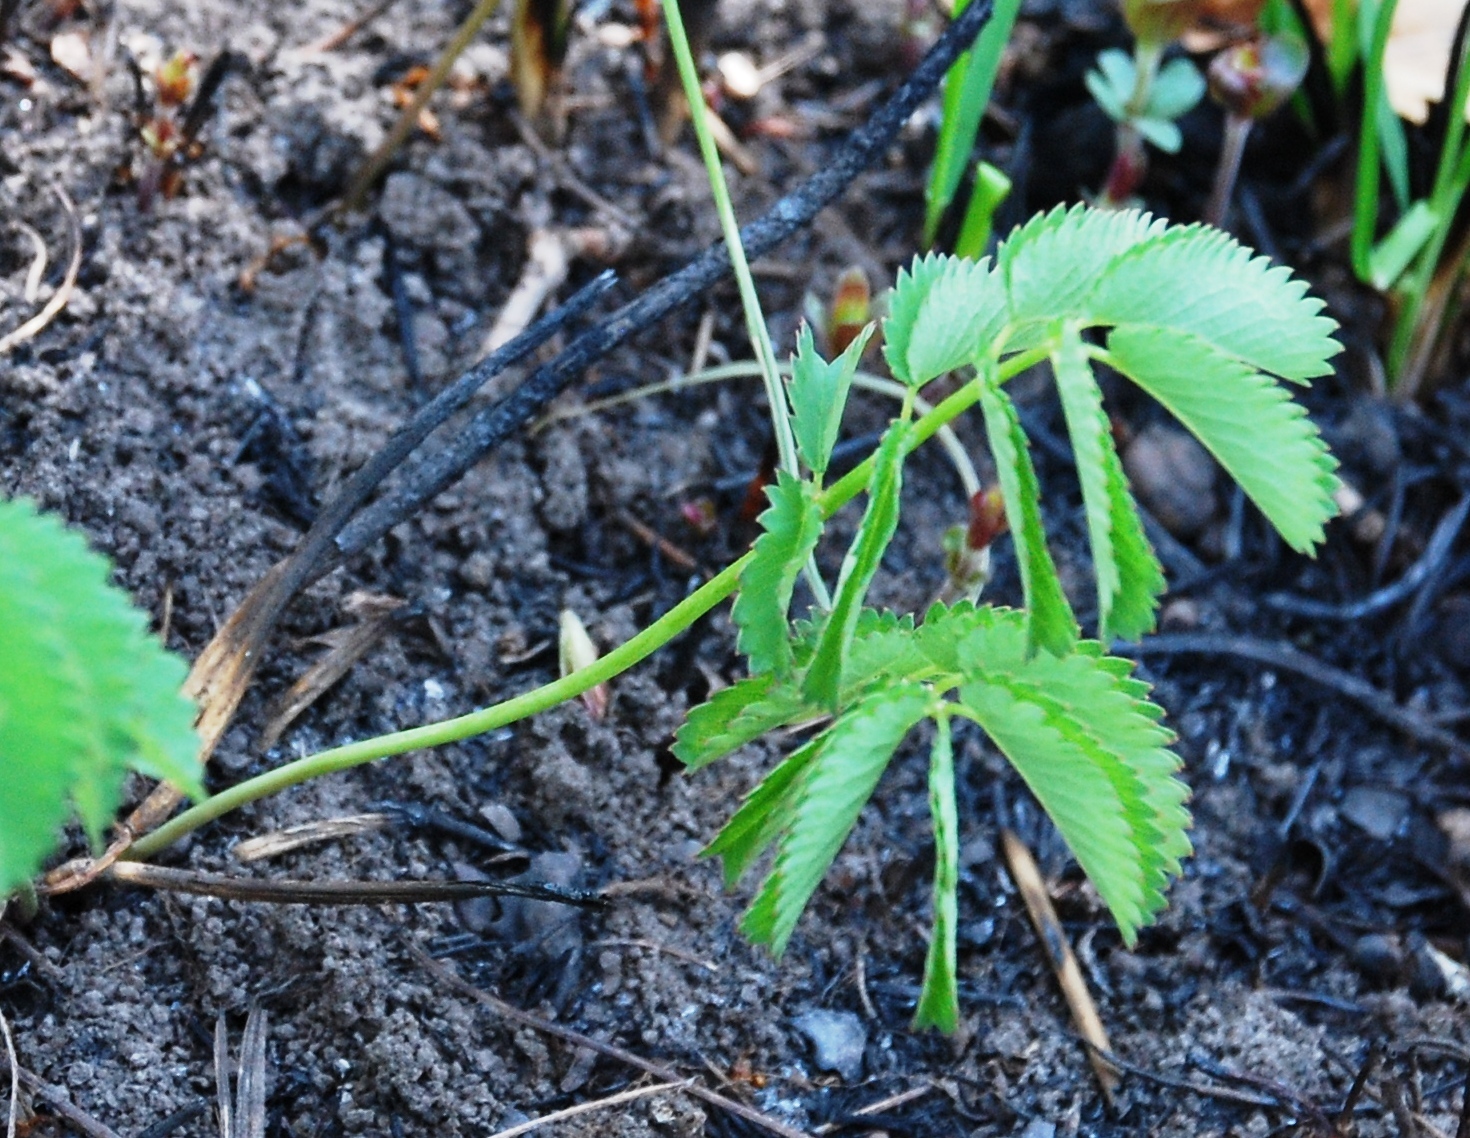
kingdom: Plantae
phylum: Tracheophyta
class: Magnoliopsida
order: Rosales
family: Rosaceae
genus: Sanguisorba
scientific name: Sanguisorba officinalis
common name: Great burnet
